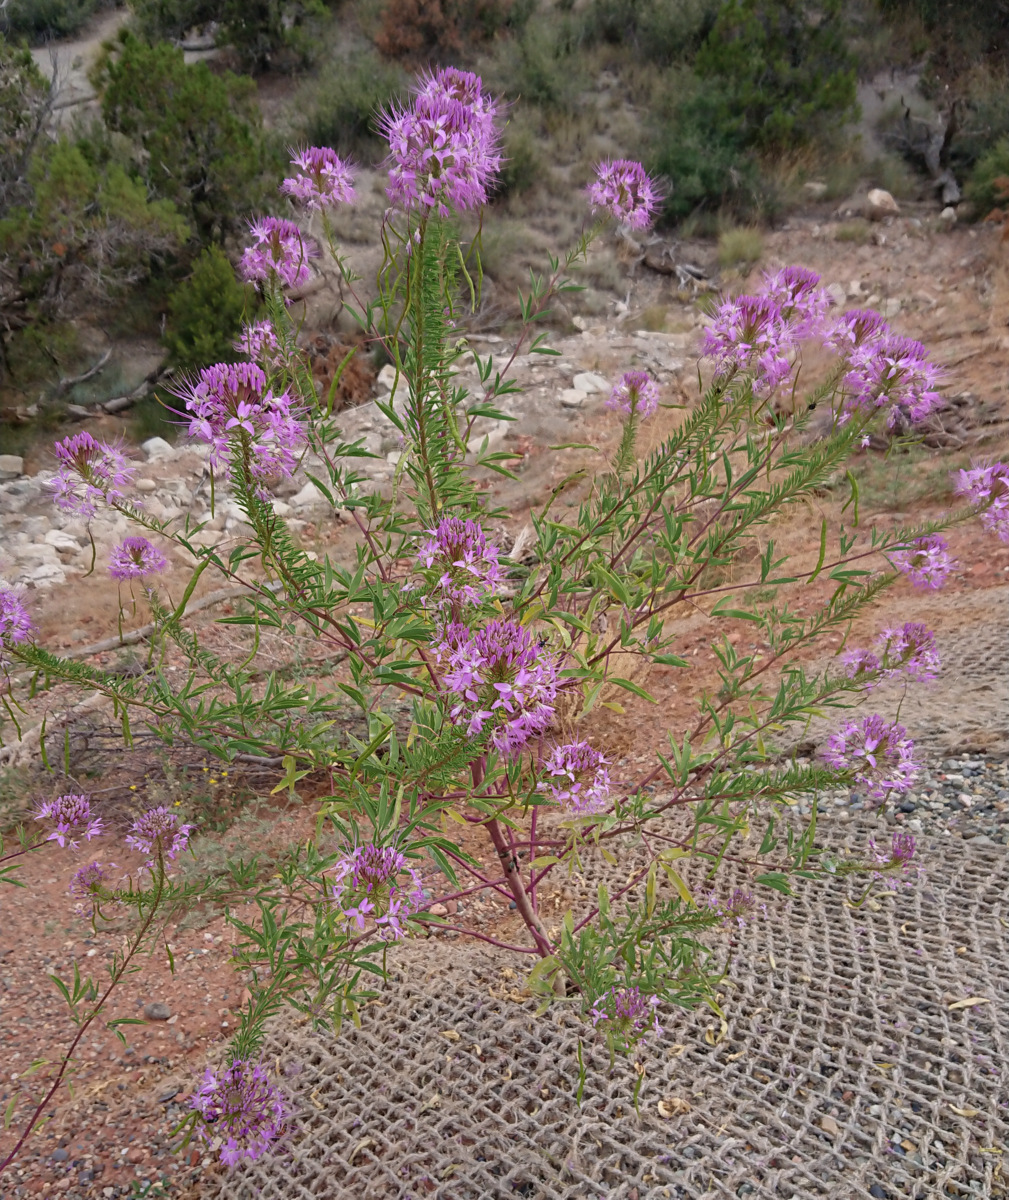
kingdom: Plantae
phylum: Tracheophyta
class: Magnoliopsida
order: Brassicales
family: Cleomaceae
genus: Cleomella
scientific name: Cleomella serrulata
